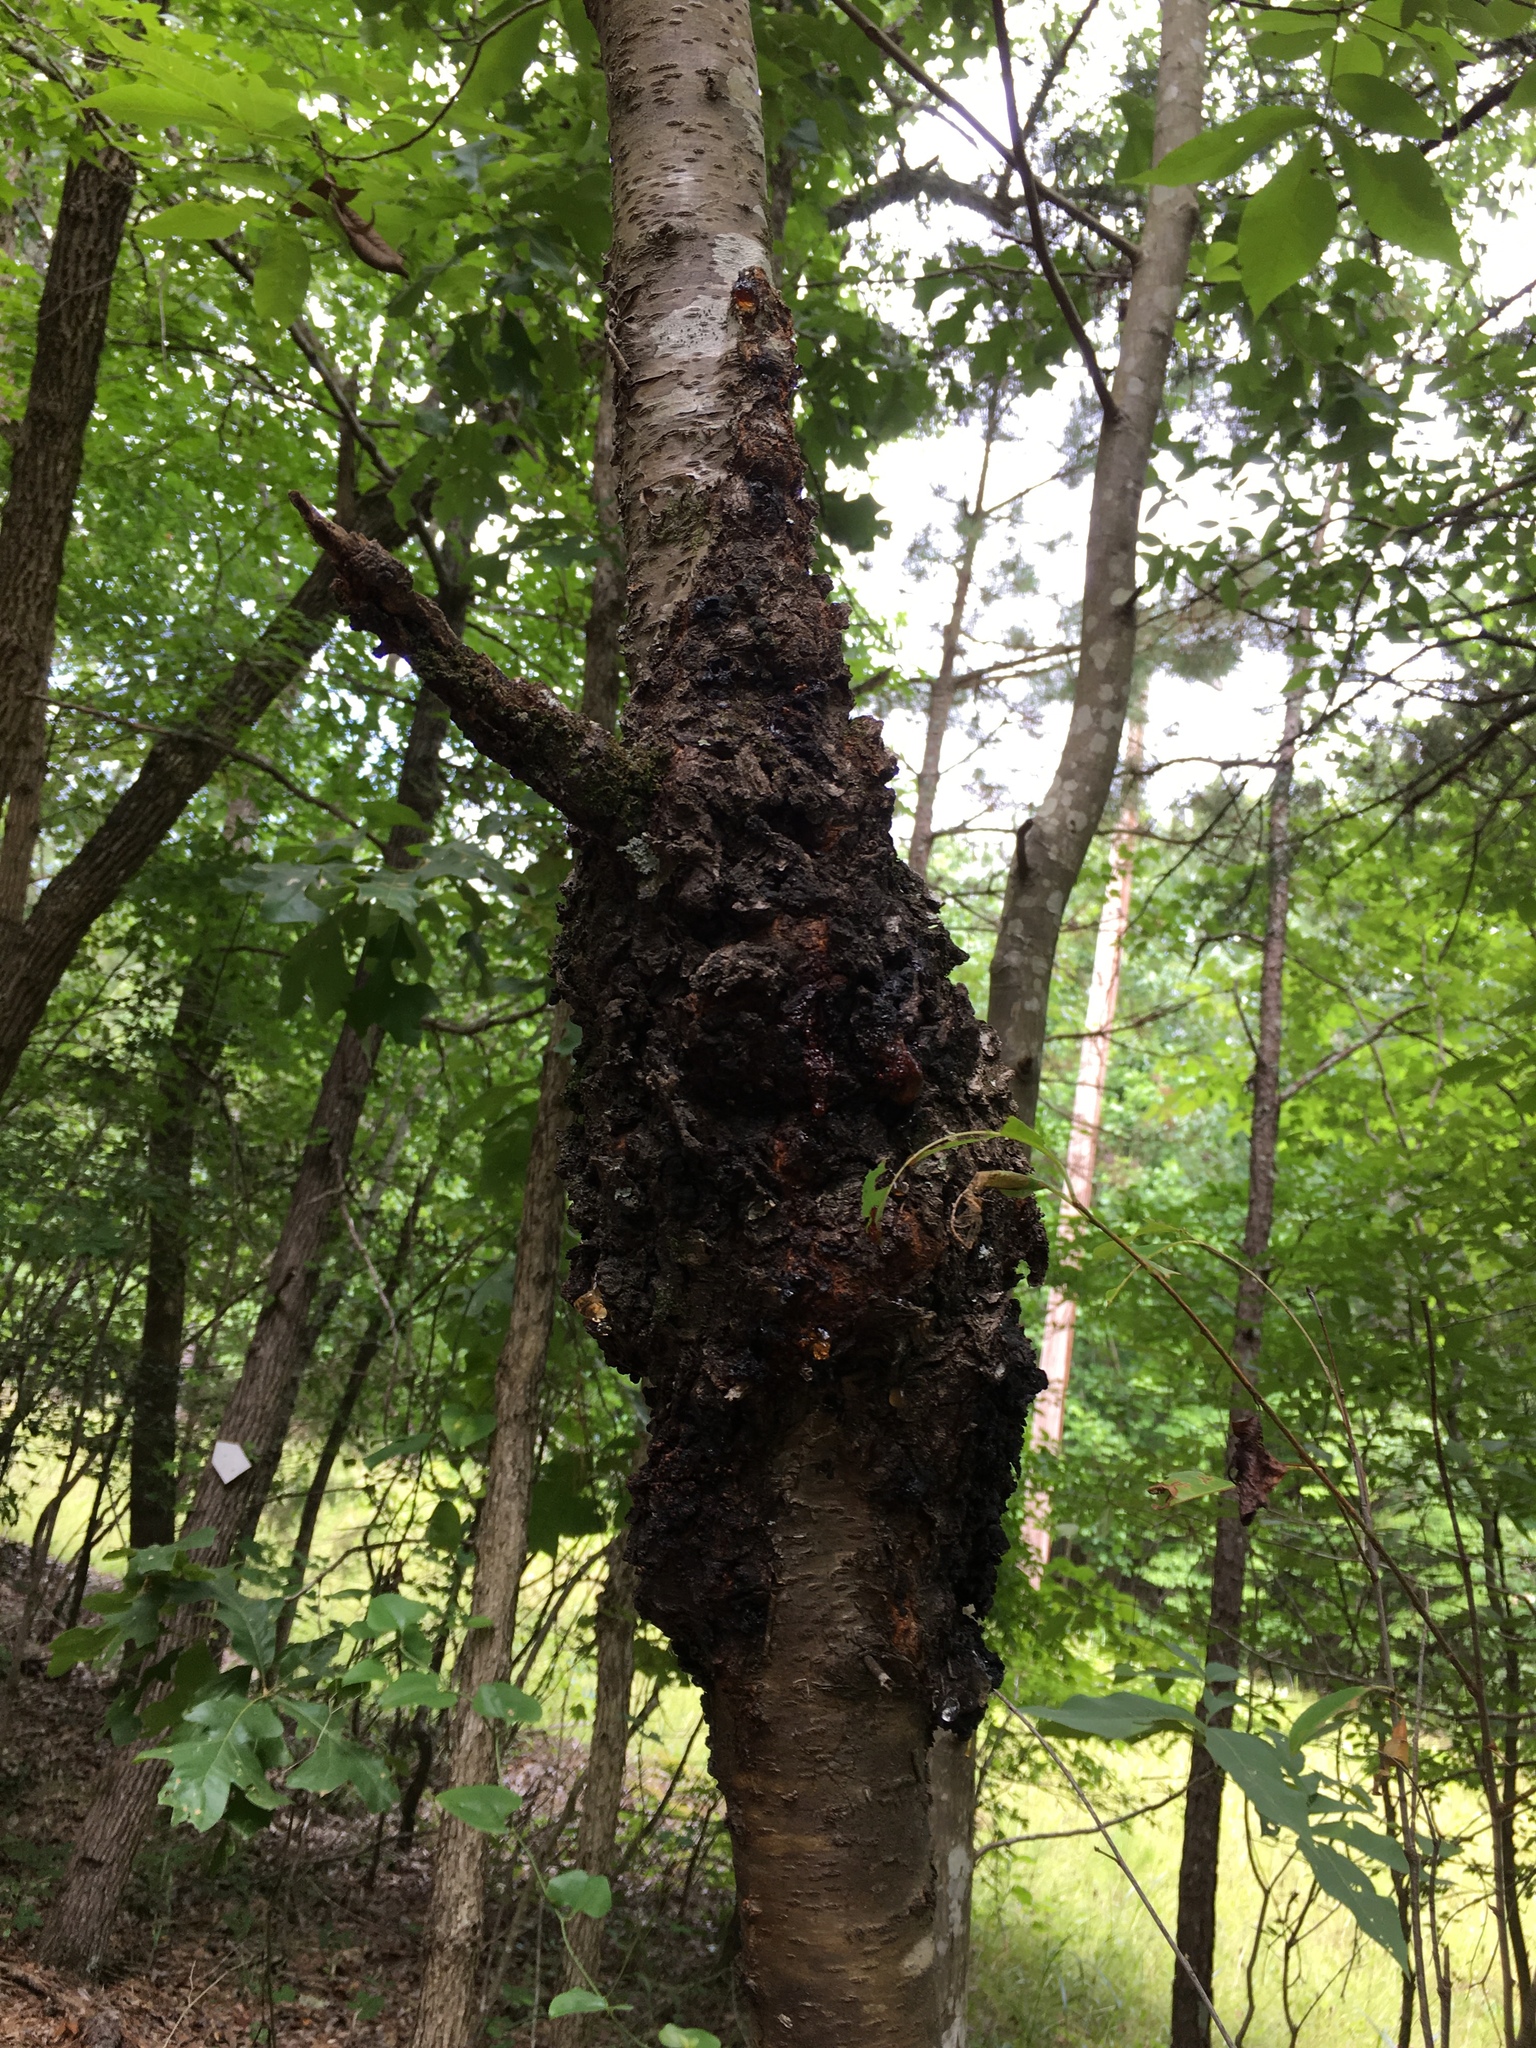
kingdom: Fungi
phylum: Ascomycota
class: Dothideomycetes
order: Venturiales
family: Venturiaceae
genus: Apiosporina
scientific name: Apiosporina morbosa
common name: Black knot
